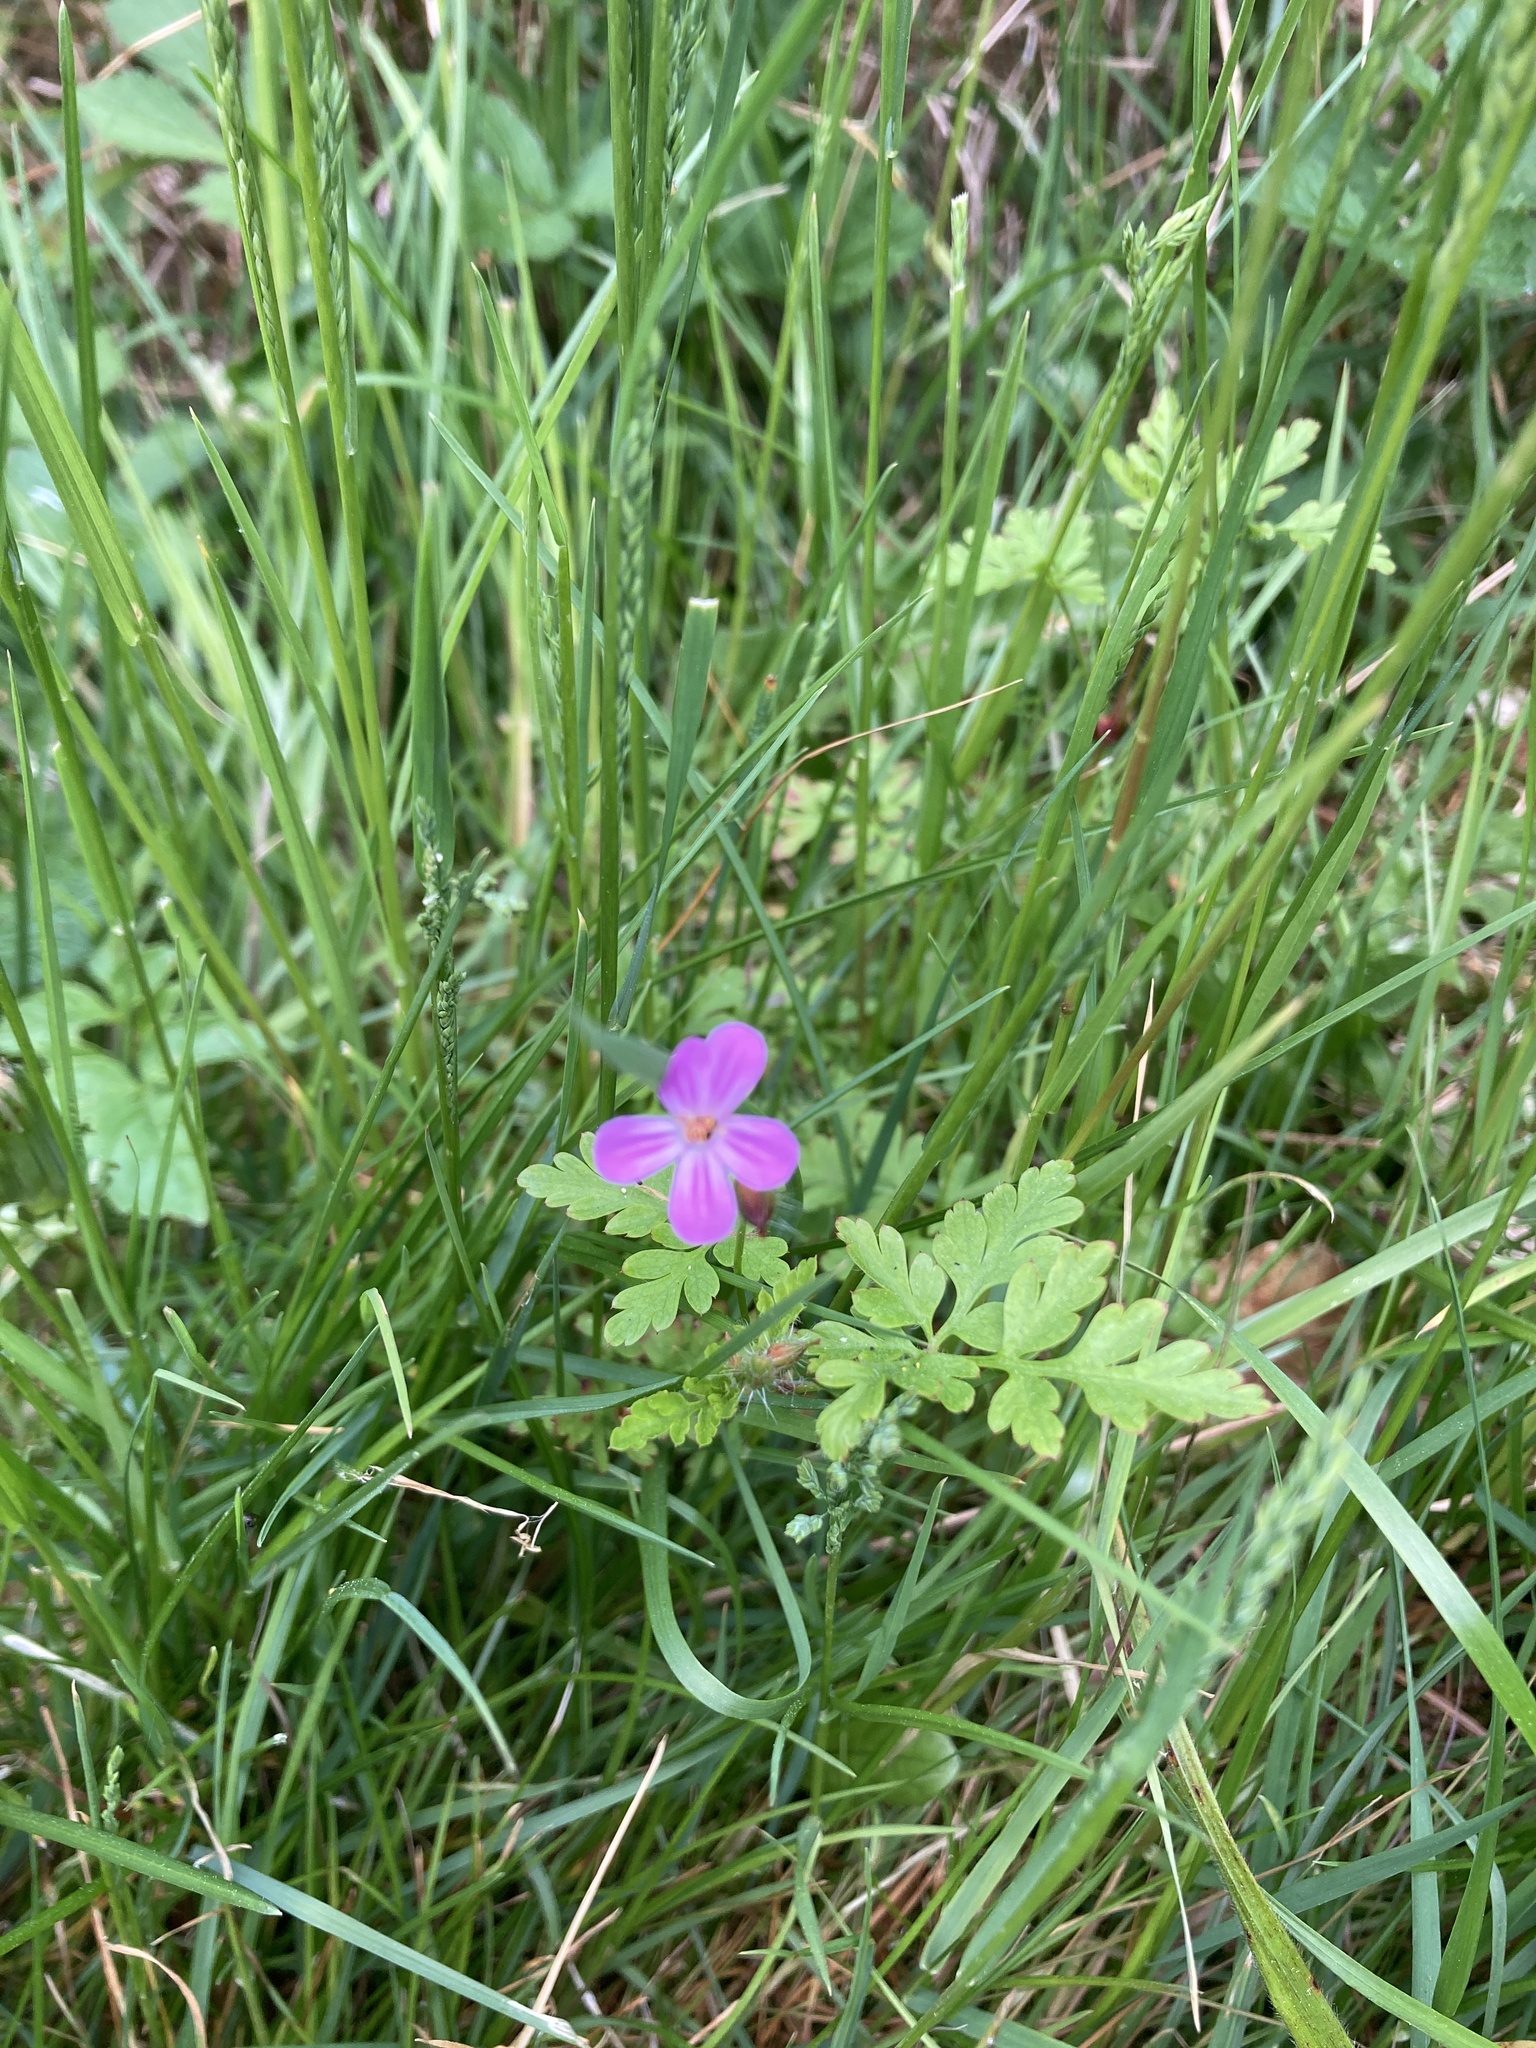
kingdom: Plantae
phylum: Tracheophyta
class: Magnoliopsida
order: Geraniales
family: Geraniaceae
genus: Geranium
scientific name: Geranium robertianum
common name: Herb-robert
